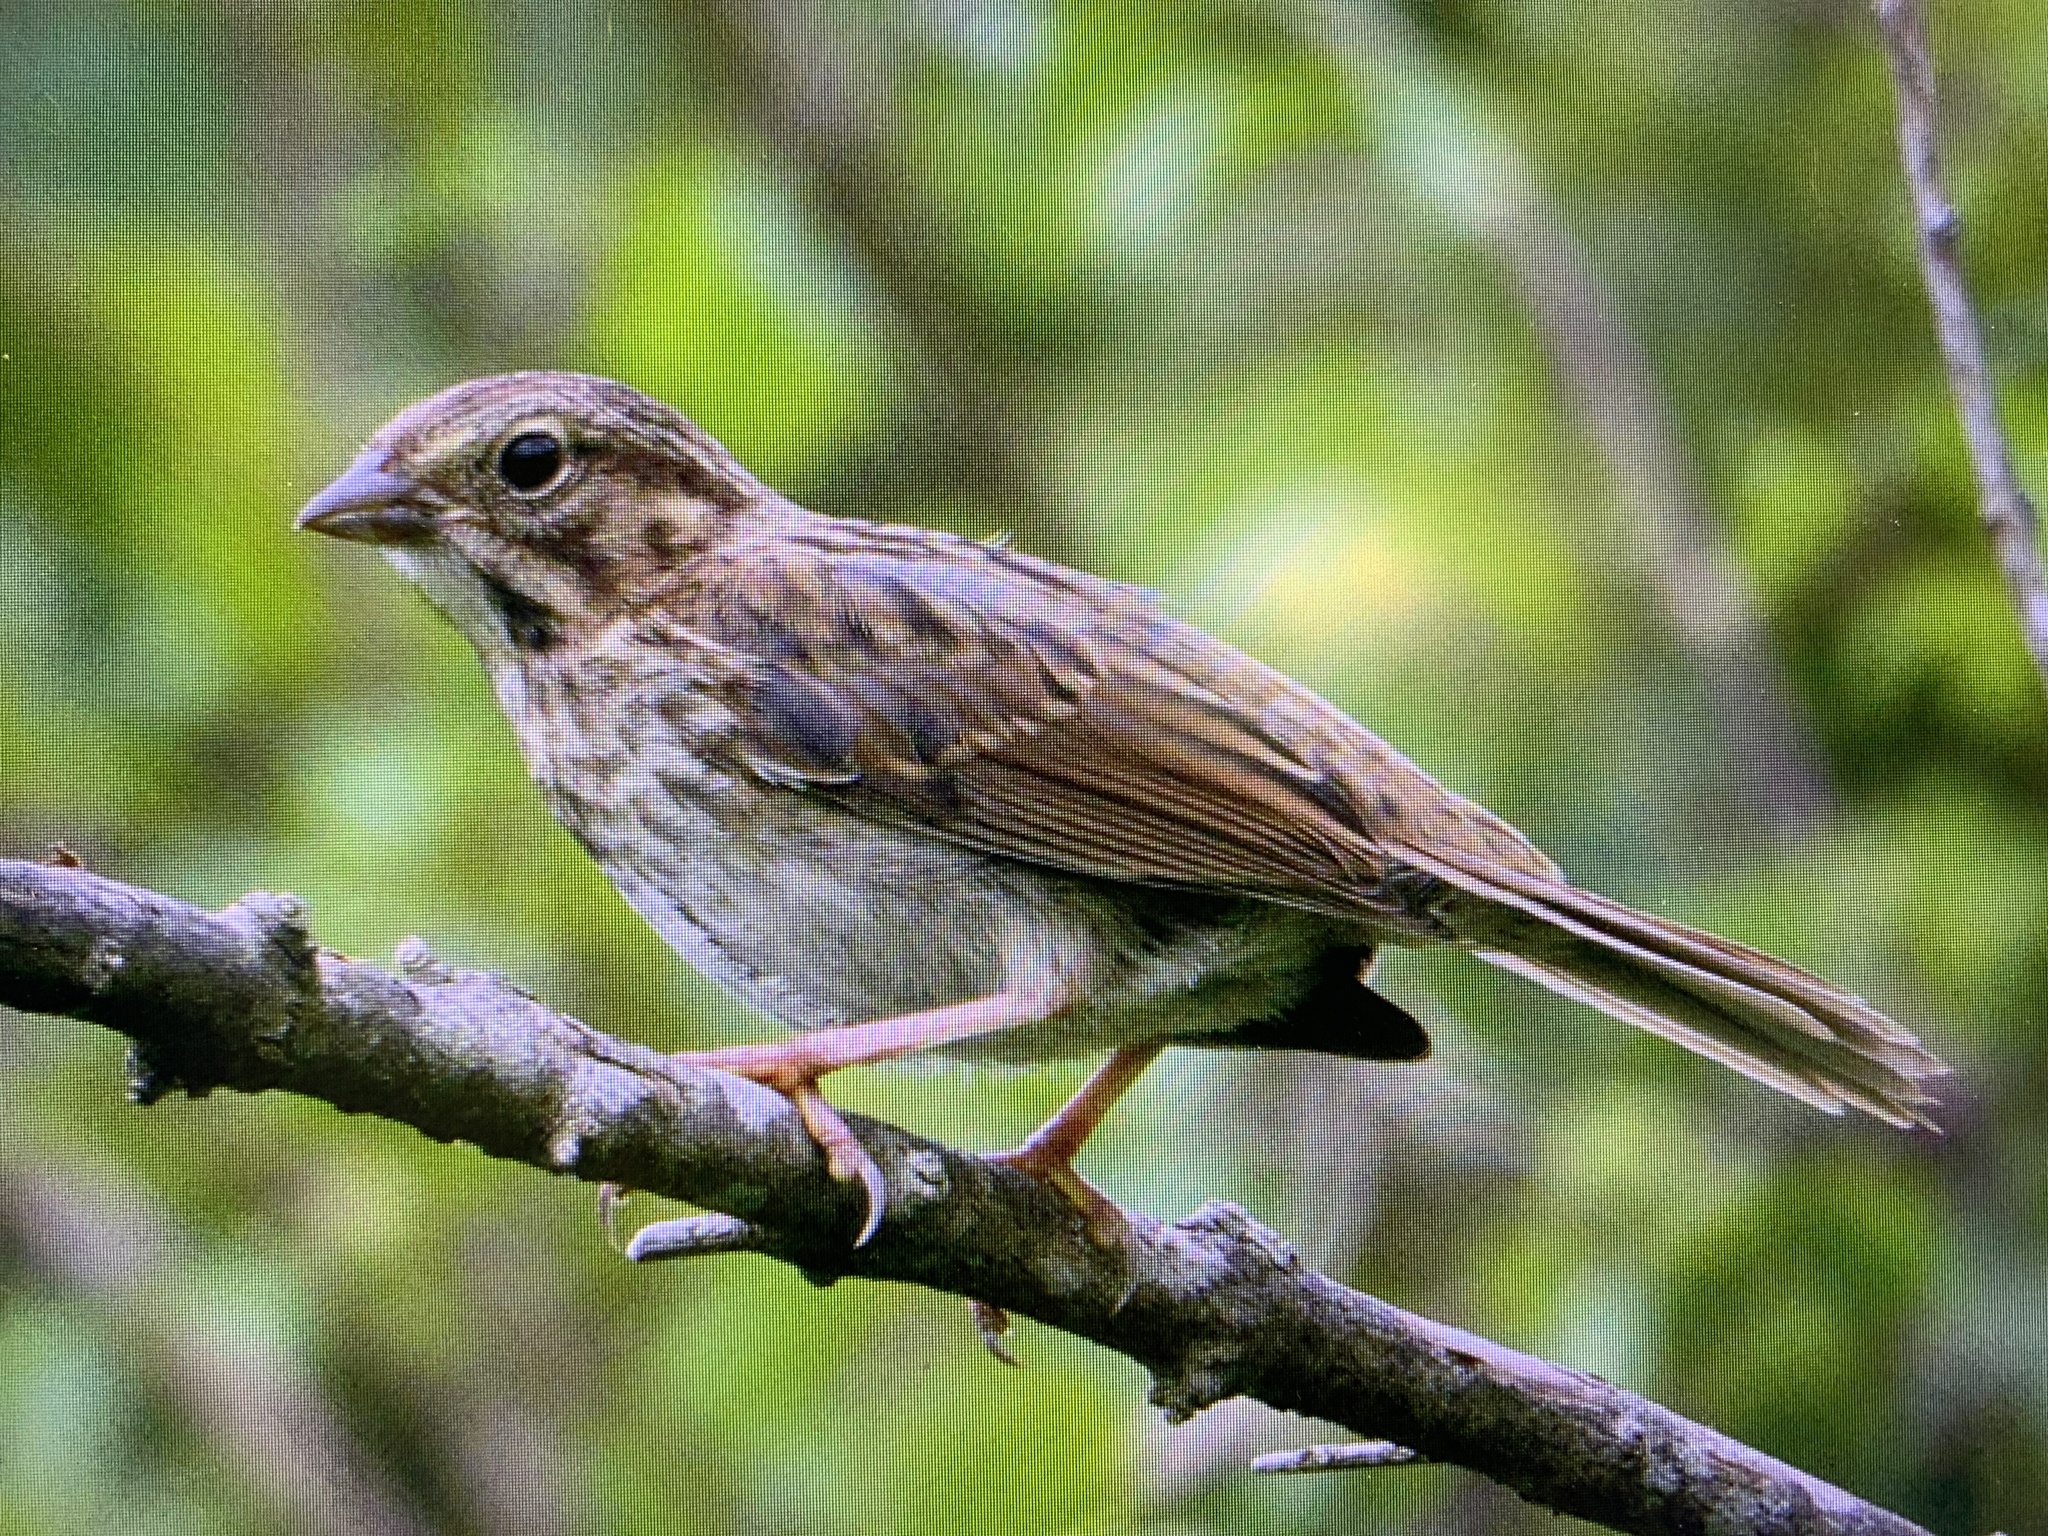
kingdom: Animalia
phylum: Chordata
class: Aves
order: Passeriformes
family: Passerellidae
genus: Melospiza
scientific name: Melospiza melodia
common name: Song sparrow
